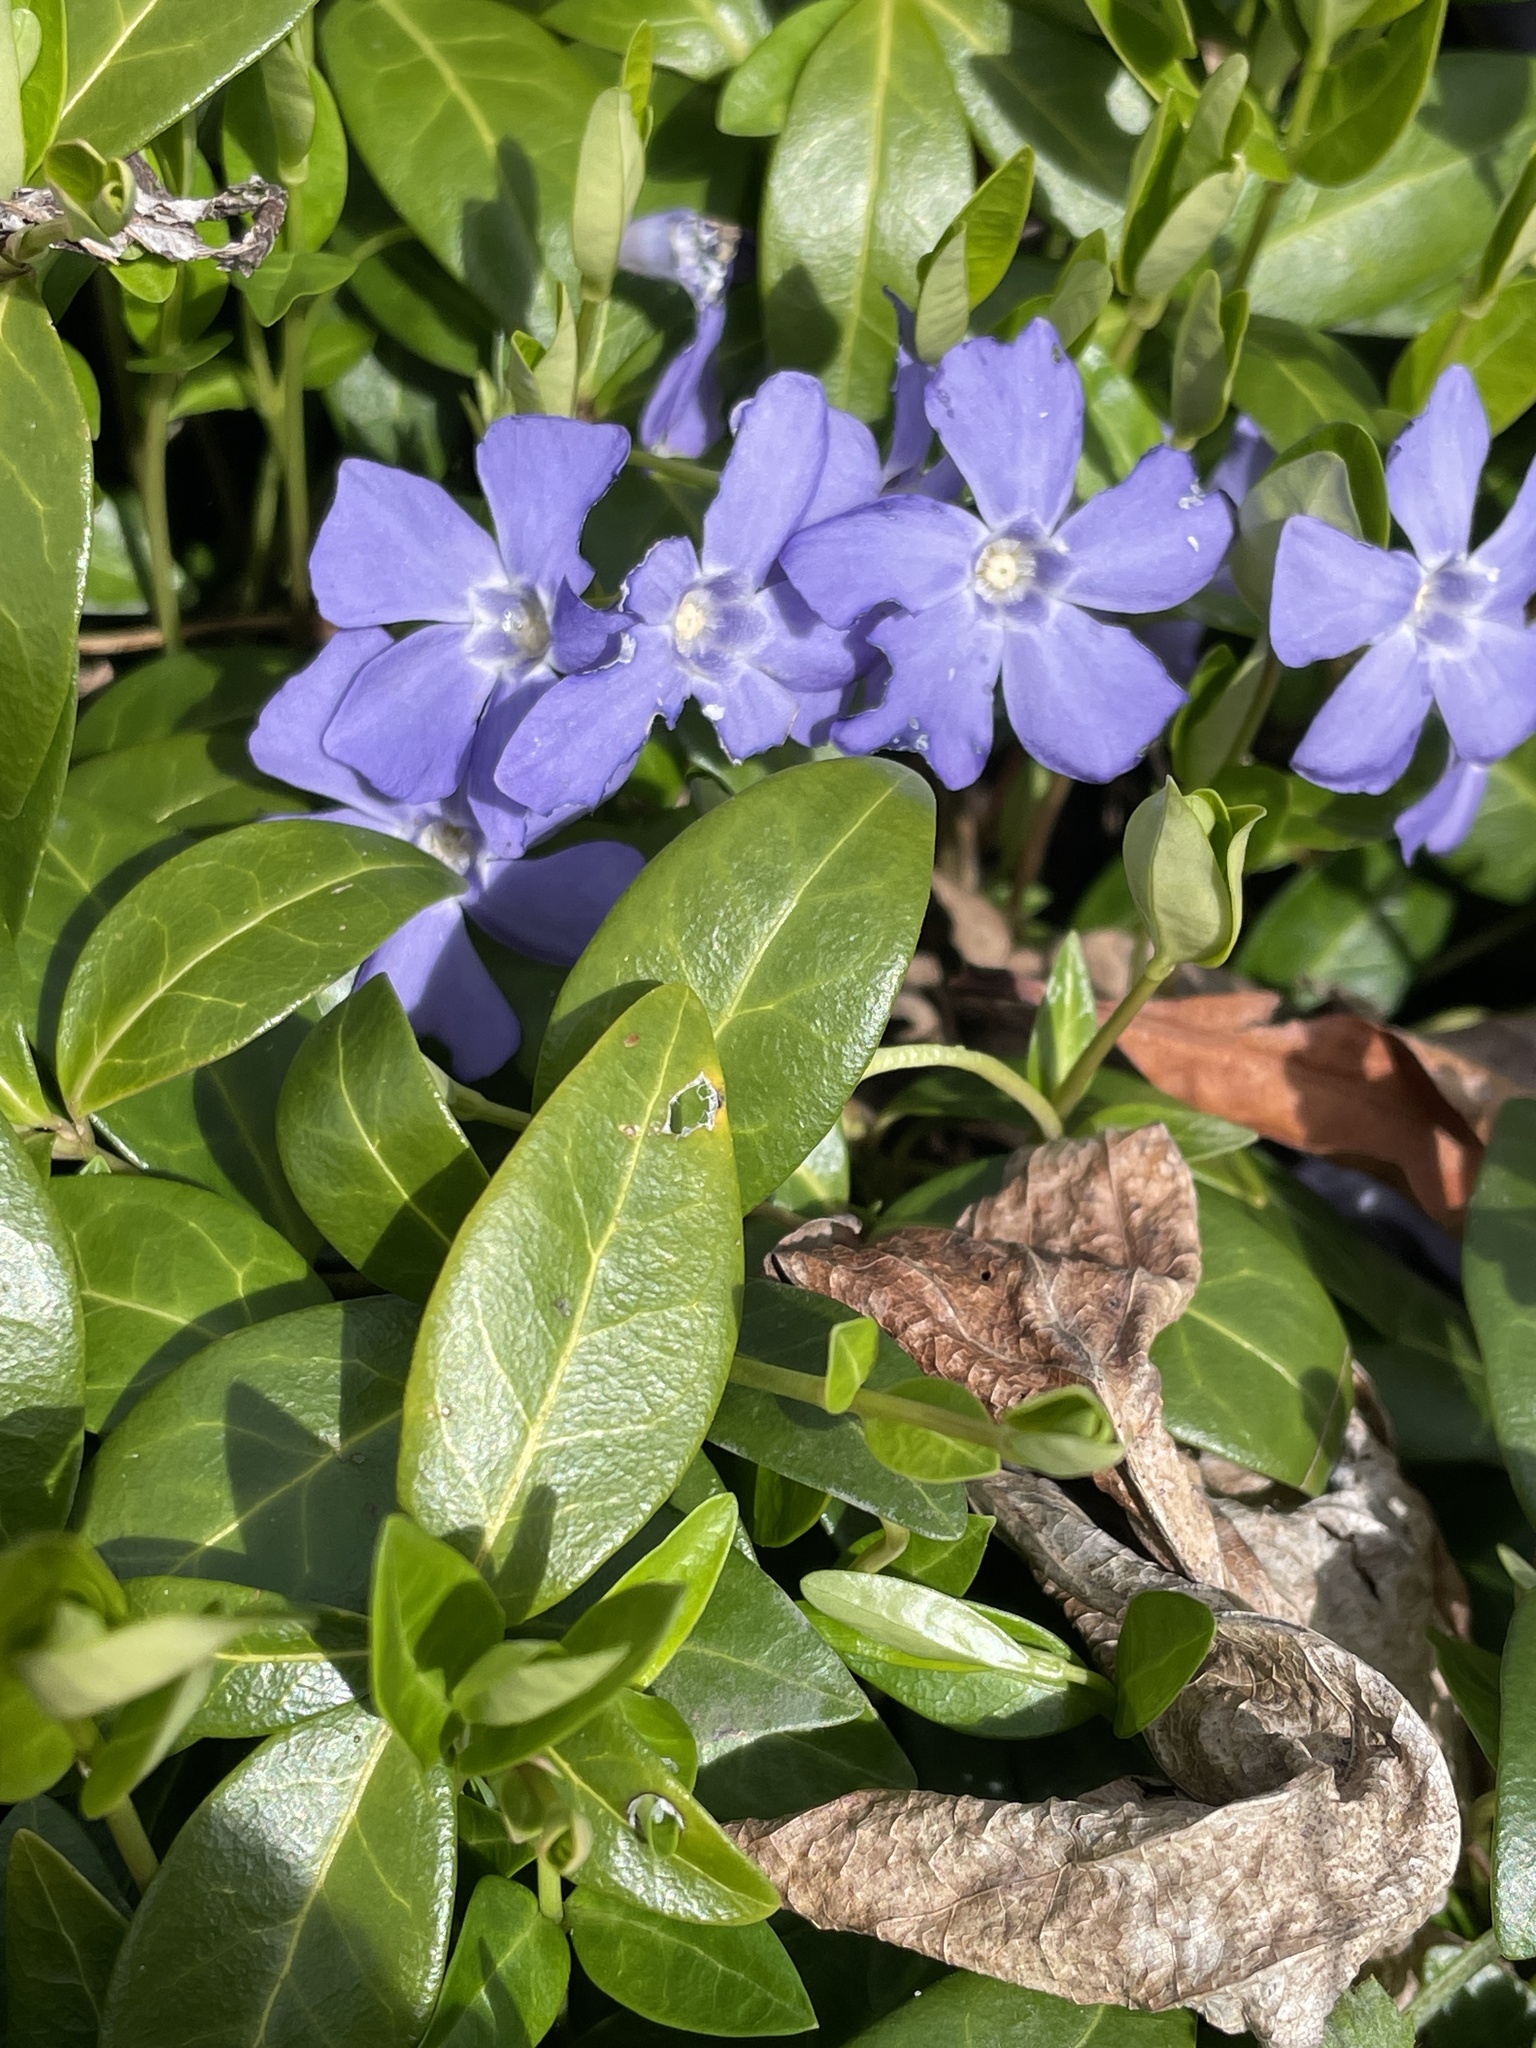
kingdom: Plantae
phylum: Tracheophyta
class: Magnoliopsida
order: Gentianales
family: Apocynaceae
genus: Vinca
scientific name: Vinca minor
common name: Lesser periwinkle
